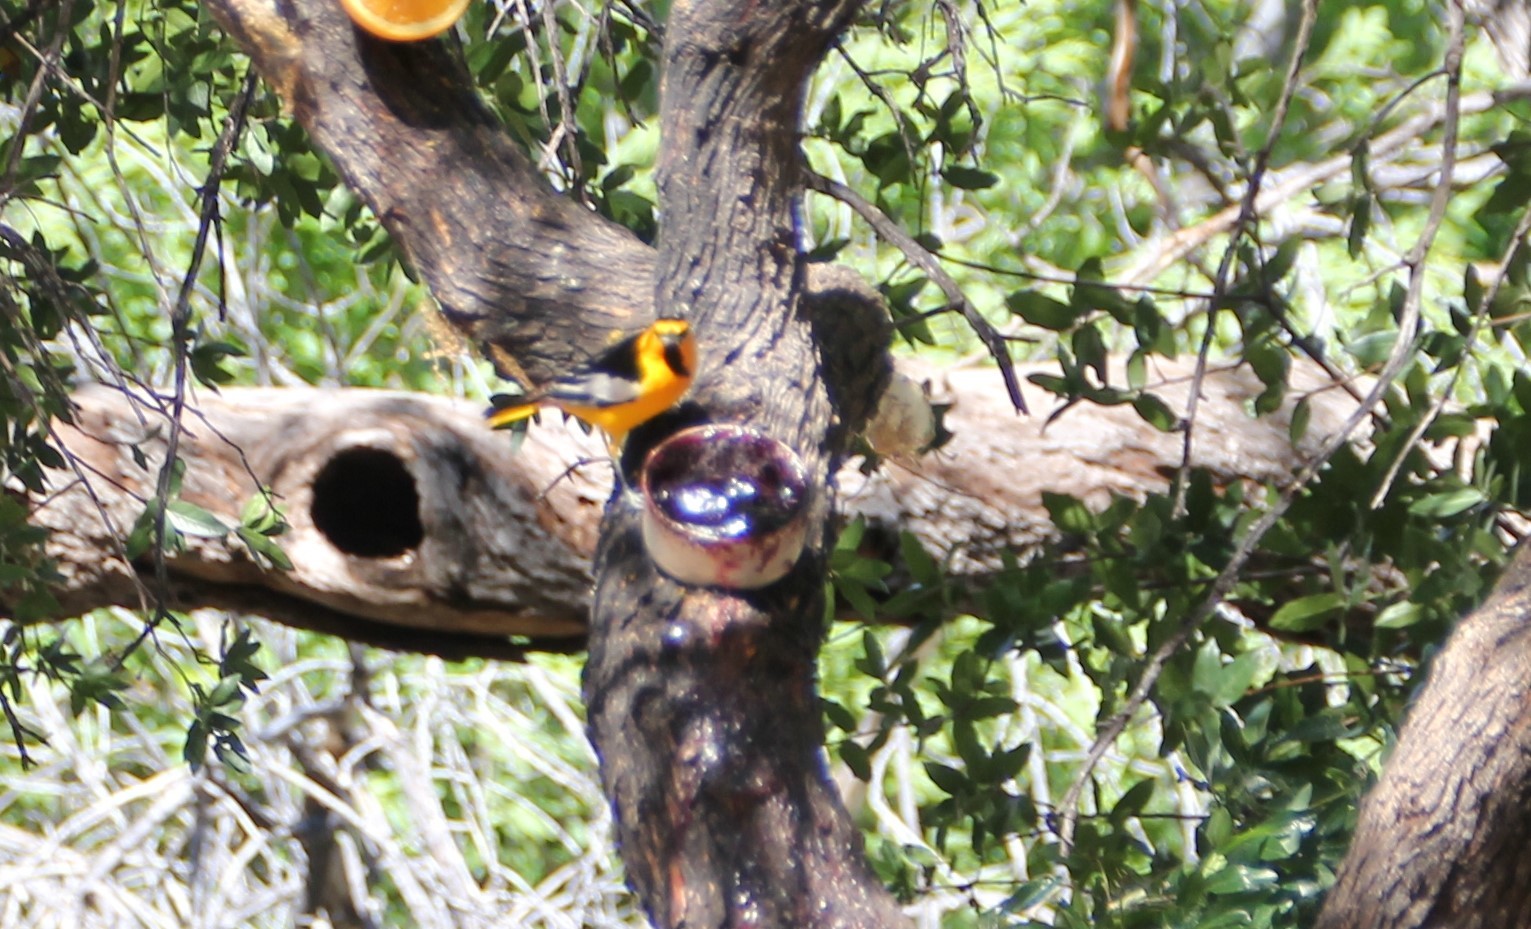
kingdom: Animalia
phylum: Chordata
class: Aves
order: Passeriformes
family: Icteridae
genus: Icterus
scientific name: Icterus bullockii
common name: Bullock's oriole
